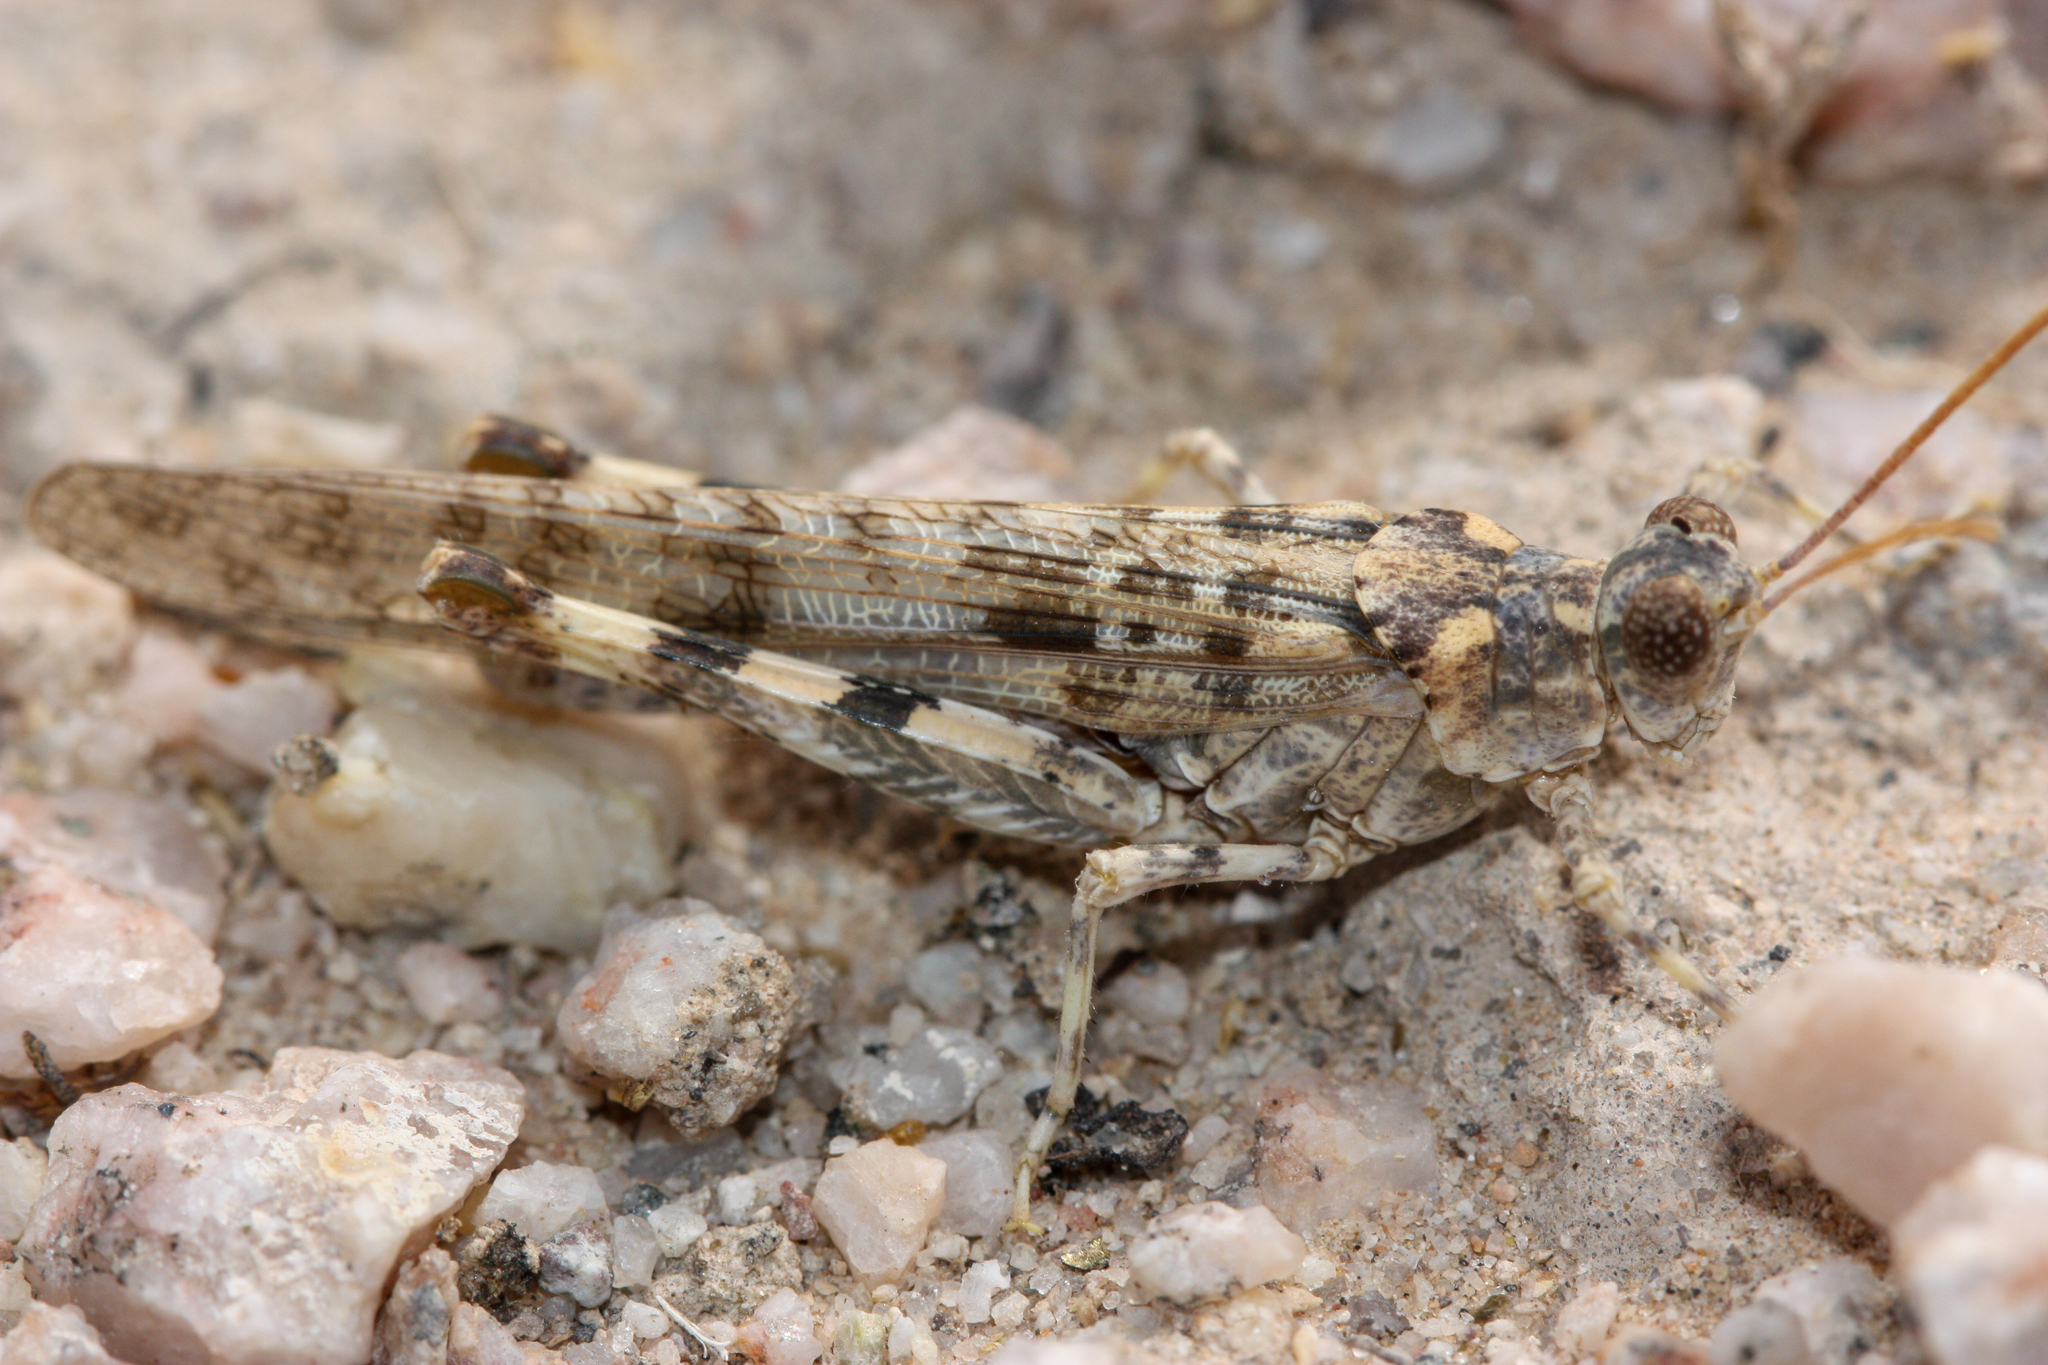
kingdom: Animalia
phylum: Arthropoda
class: Insecta
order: Orthoptera
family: Acrididae
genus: Anconia
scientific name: Anconia integra
